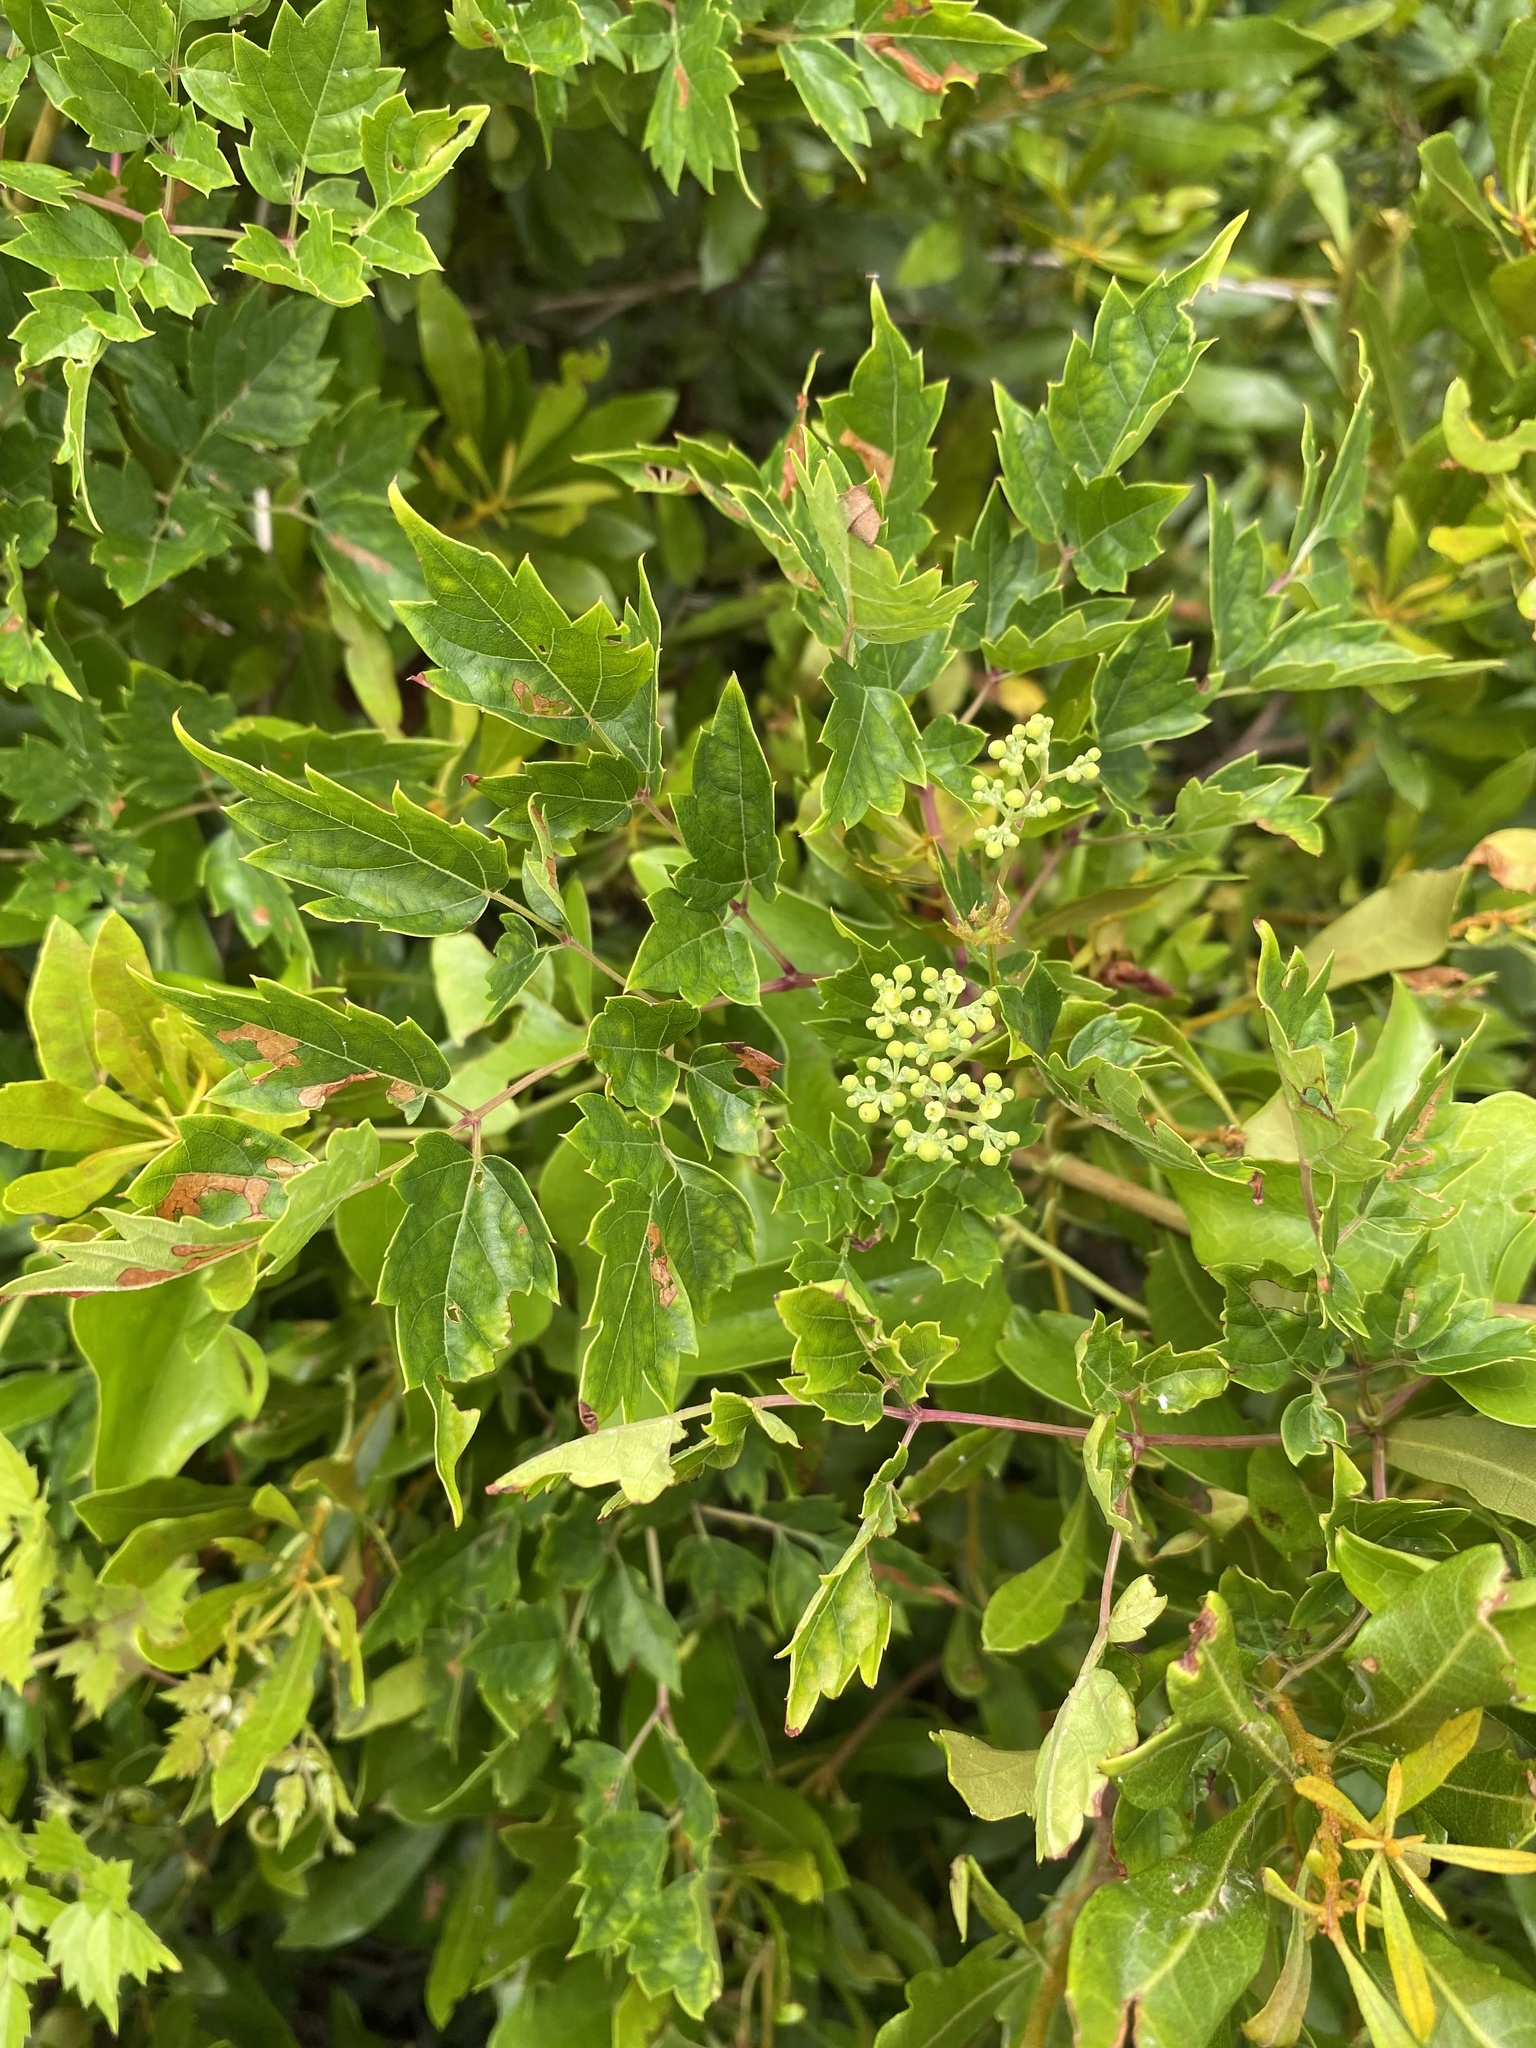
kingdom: Plantae
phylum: Tracheophyta
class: Magnoliopsida
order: Vitales
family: Vitaceae
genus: Nekemias
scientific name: Nekemias arborea
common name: Peppervine
